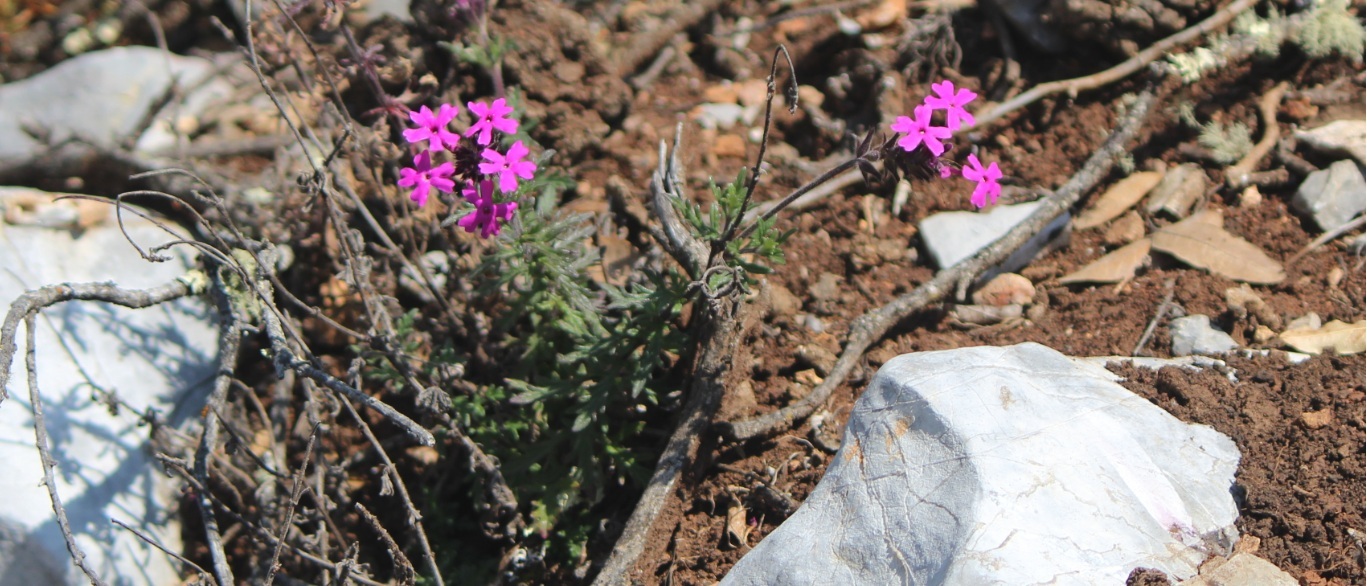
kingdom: Plantae
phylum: Tracheophyta
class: Magnoliopsida
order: Lamiales
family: Verbenaceae
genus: Verbena
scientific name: Verbena bipinnatifida
